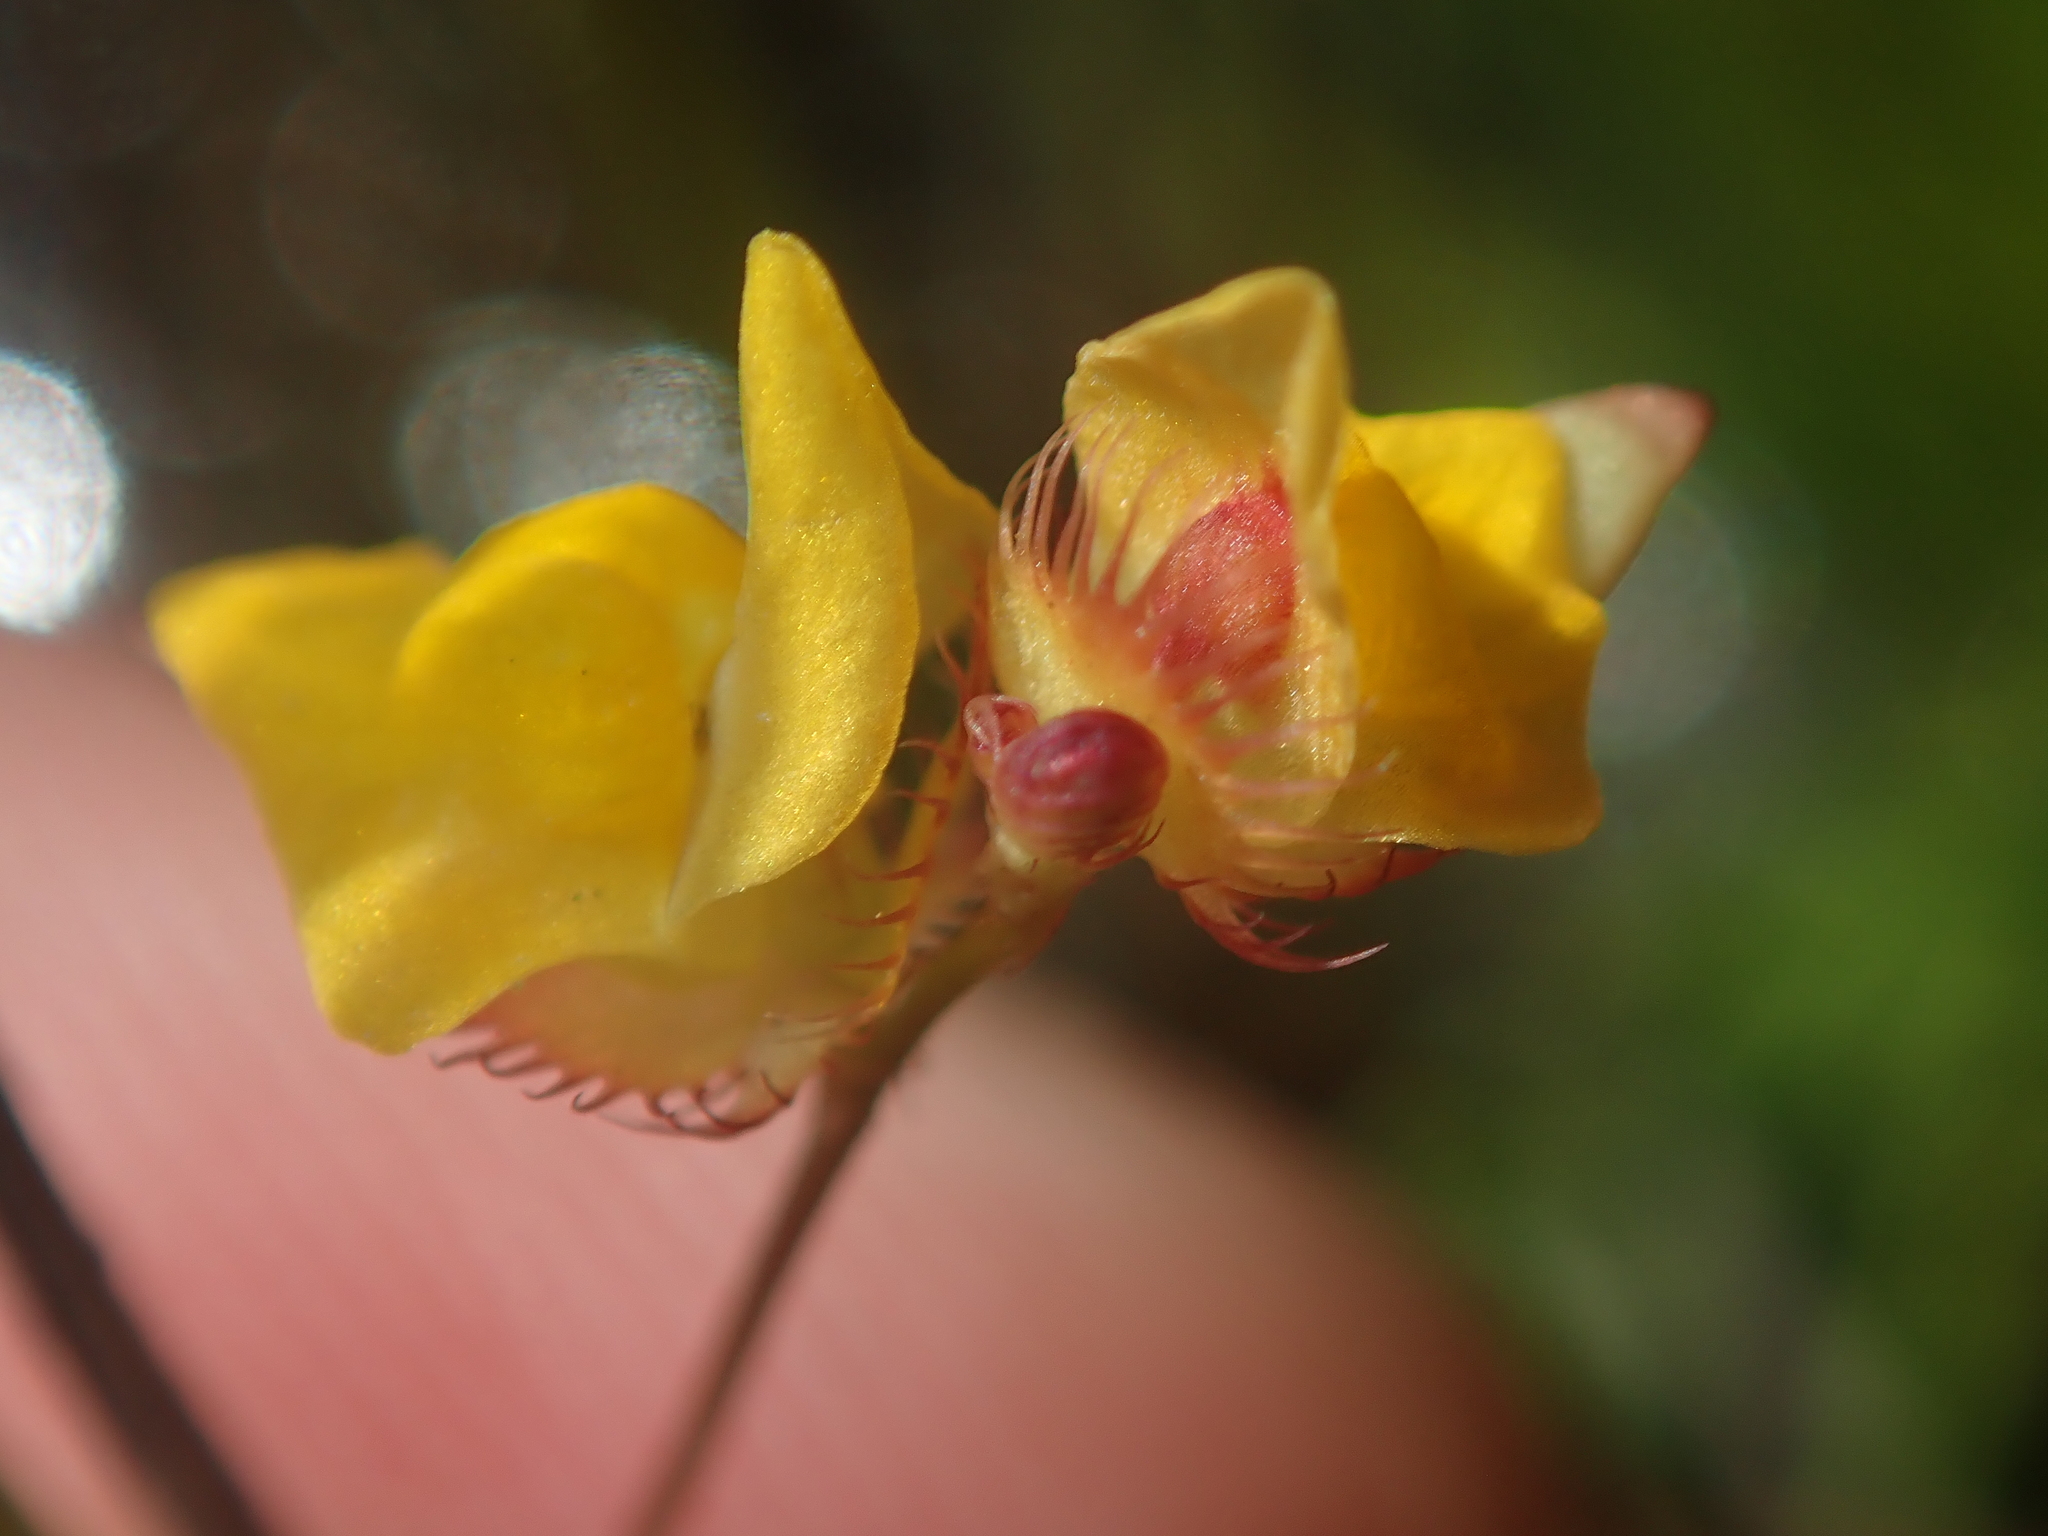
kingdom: Plantae
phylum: Tracheophyta
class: Magnoliopsida
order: Lamiales
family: Lentibulariaceae
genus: Utricularia
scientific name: Utricularia simulans
